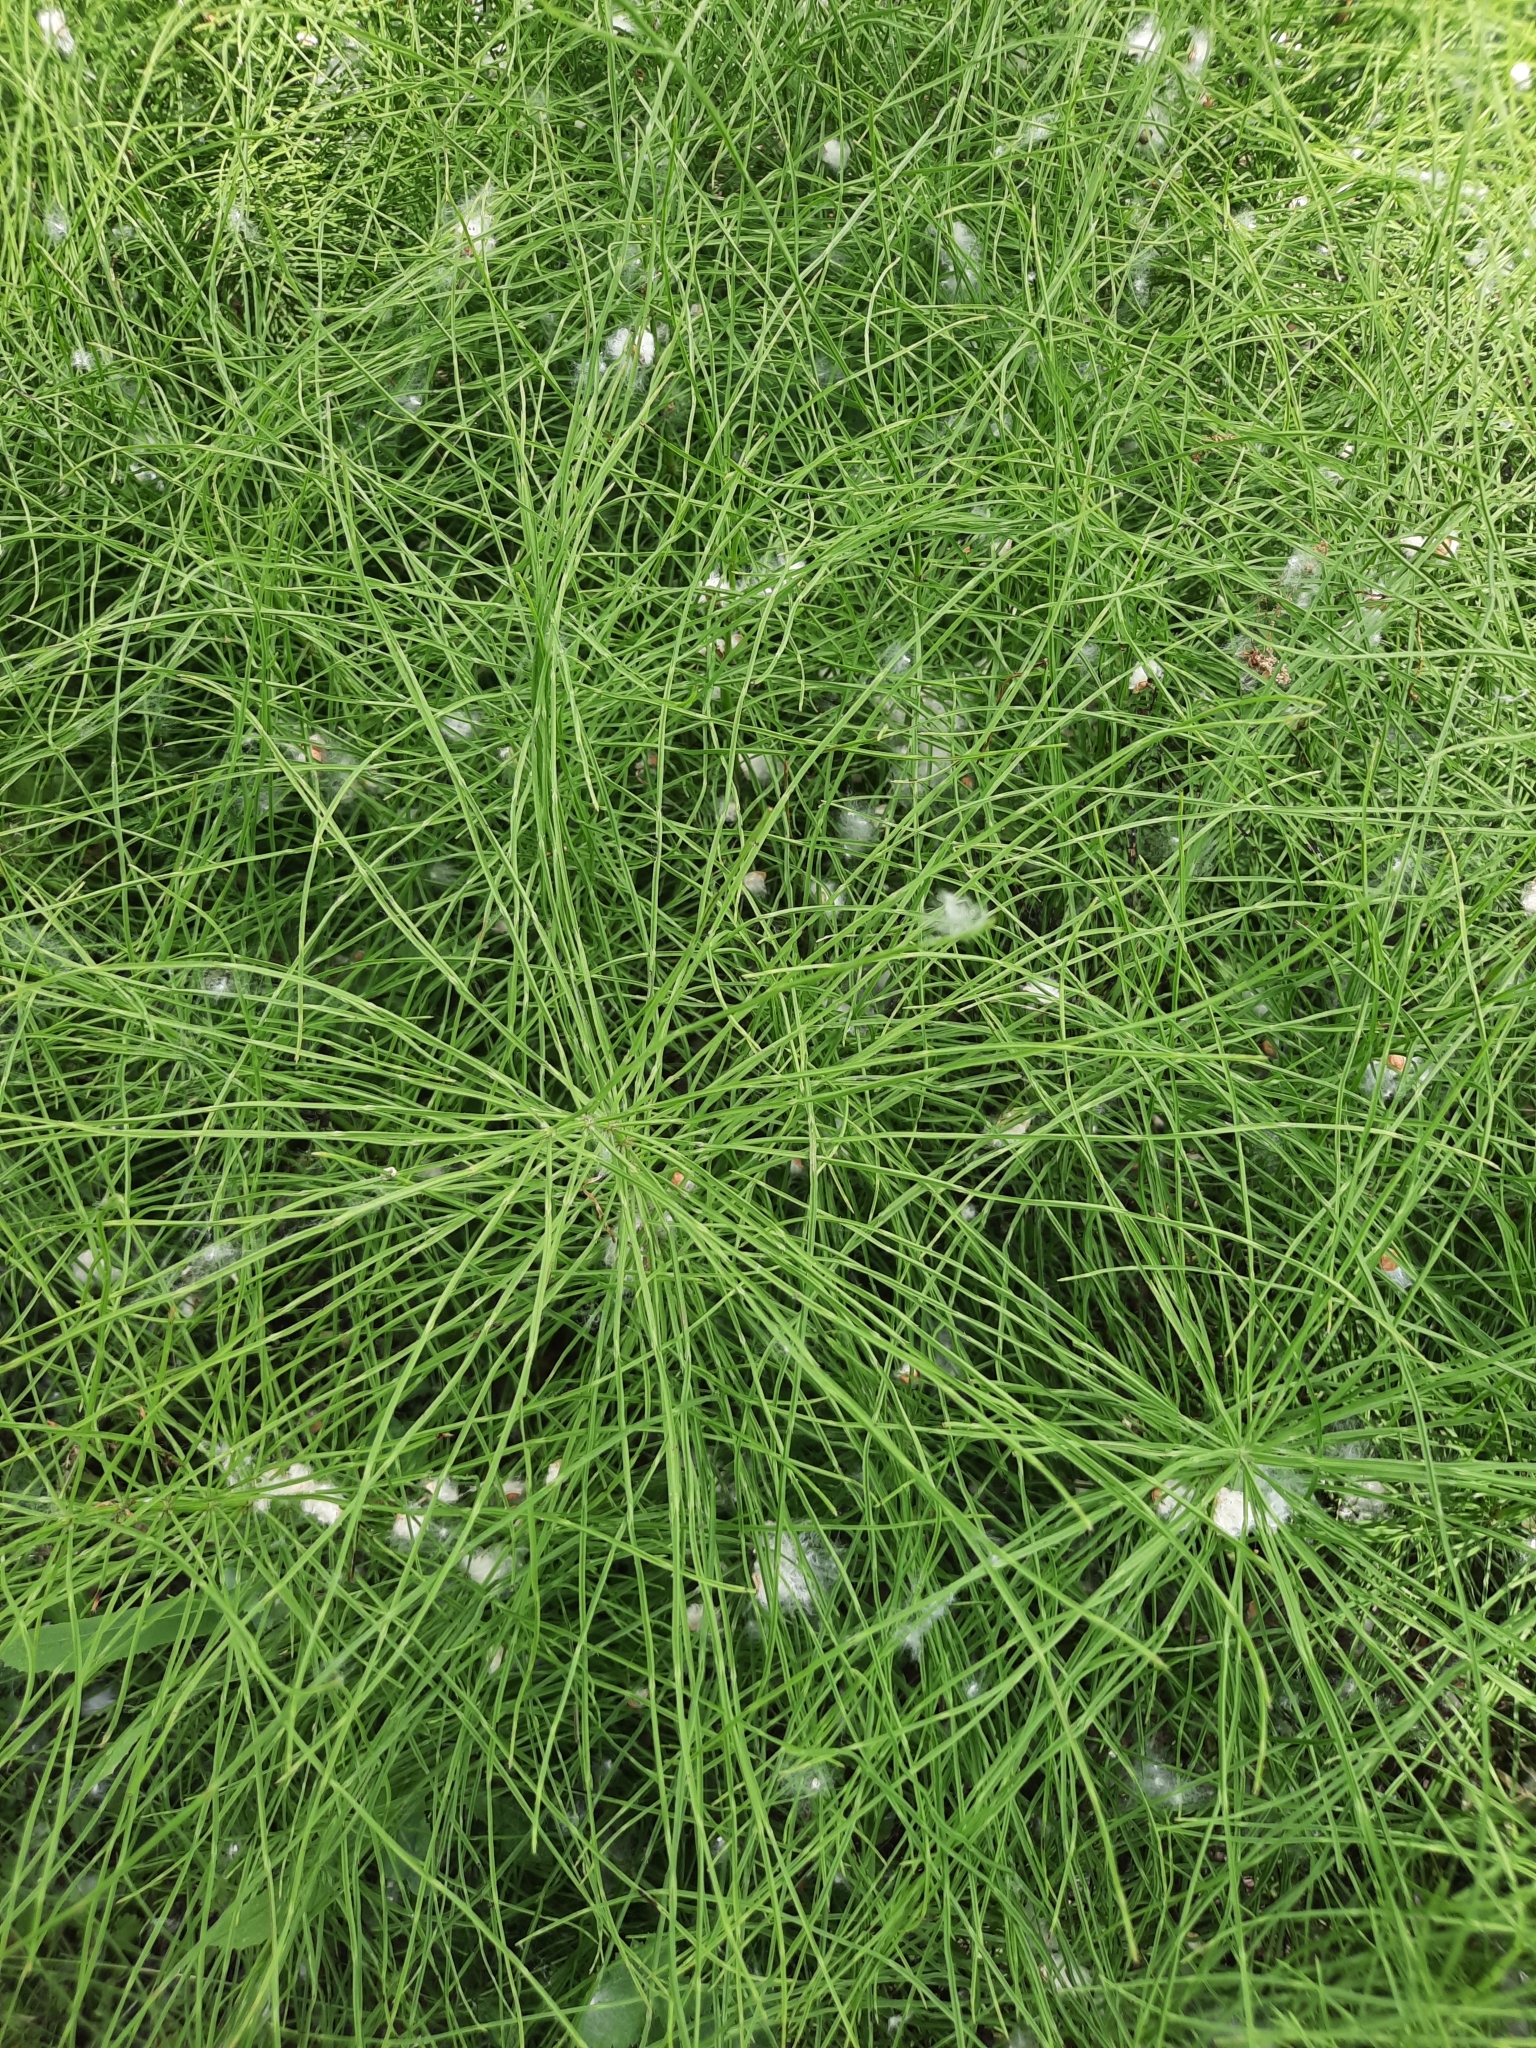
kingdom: Plantae
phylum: Tracheophyta
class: Polypodiopsida
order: Equisetales
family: Equisetaceae
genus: Equisetum
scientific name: Equisetum arvense
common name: Field horsetail
